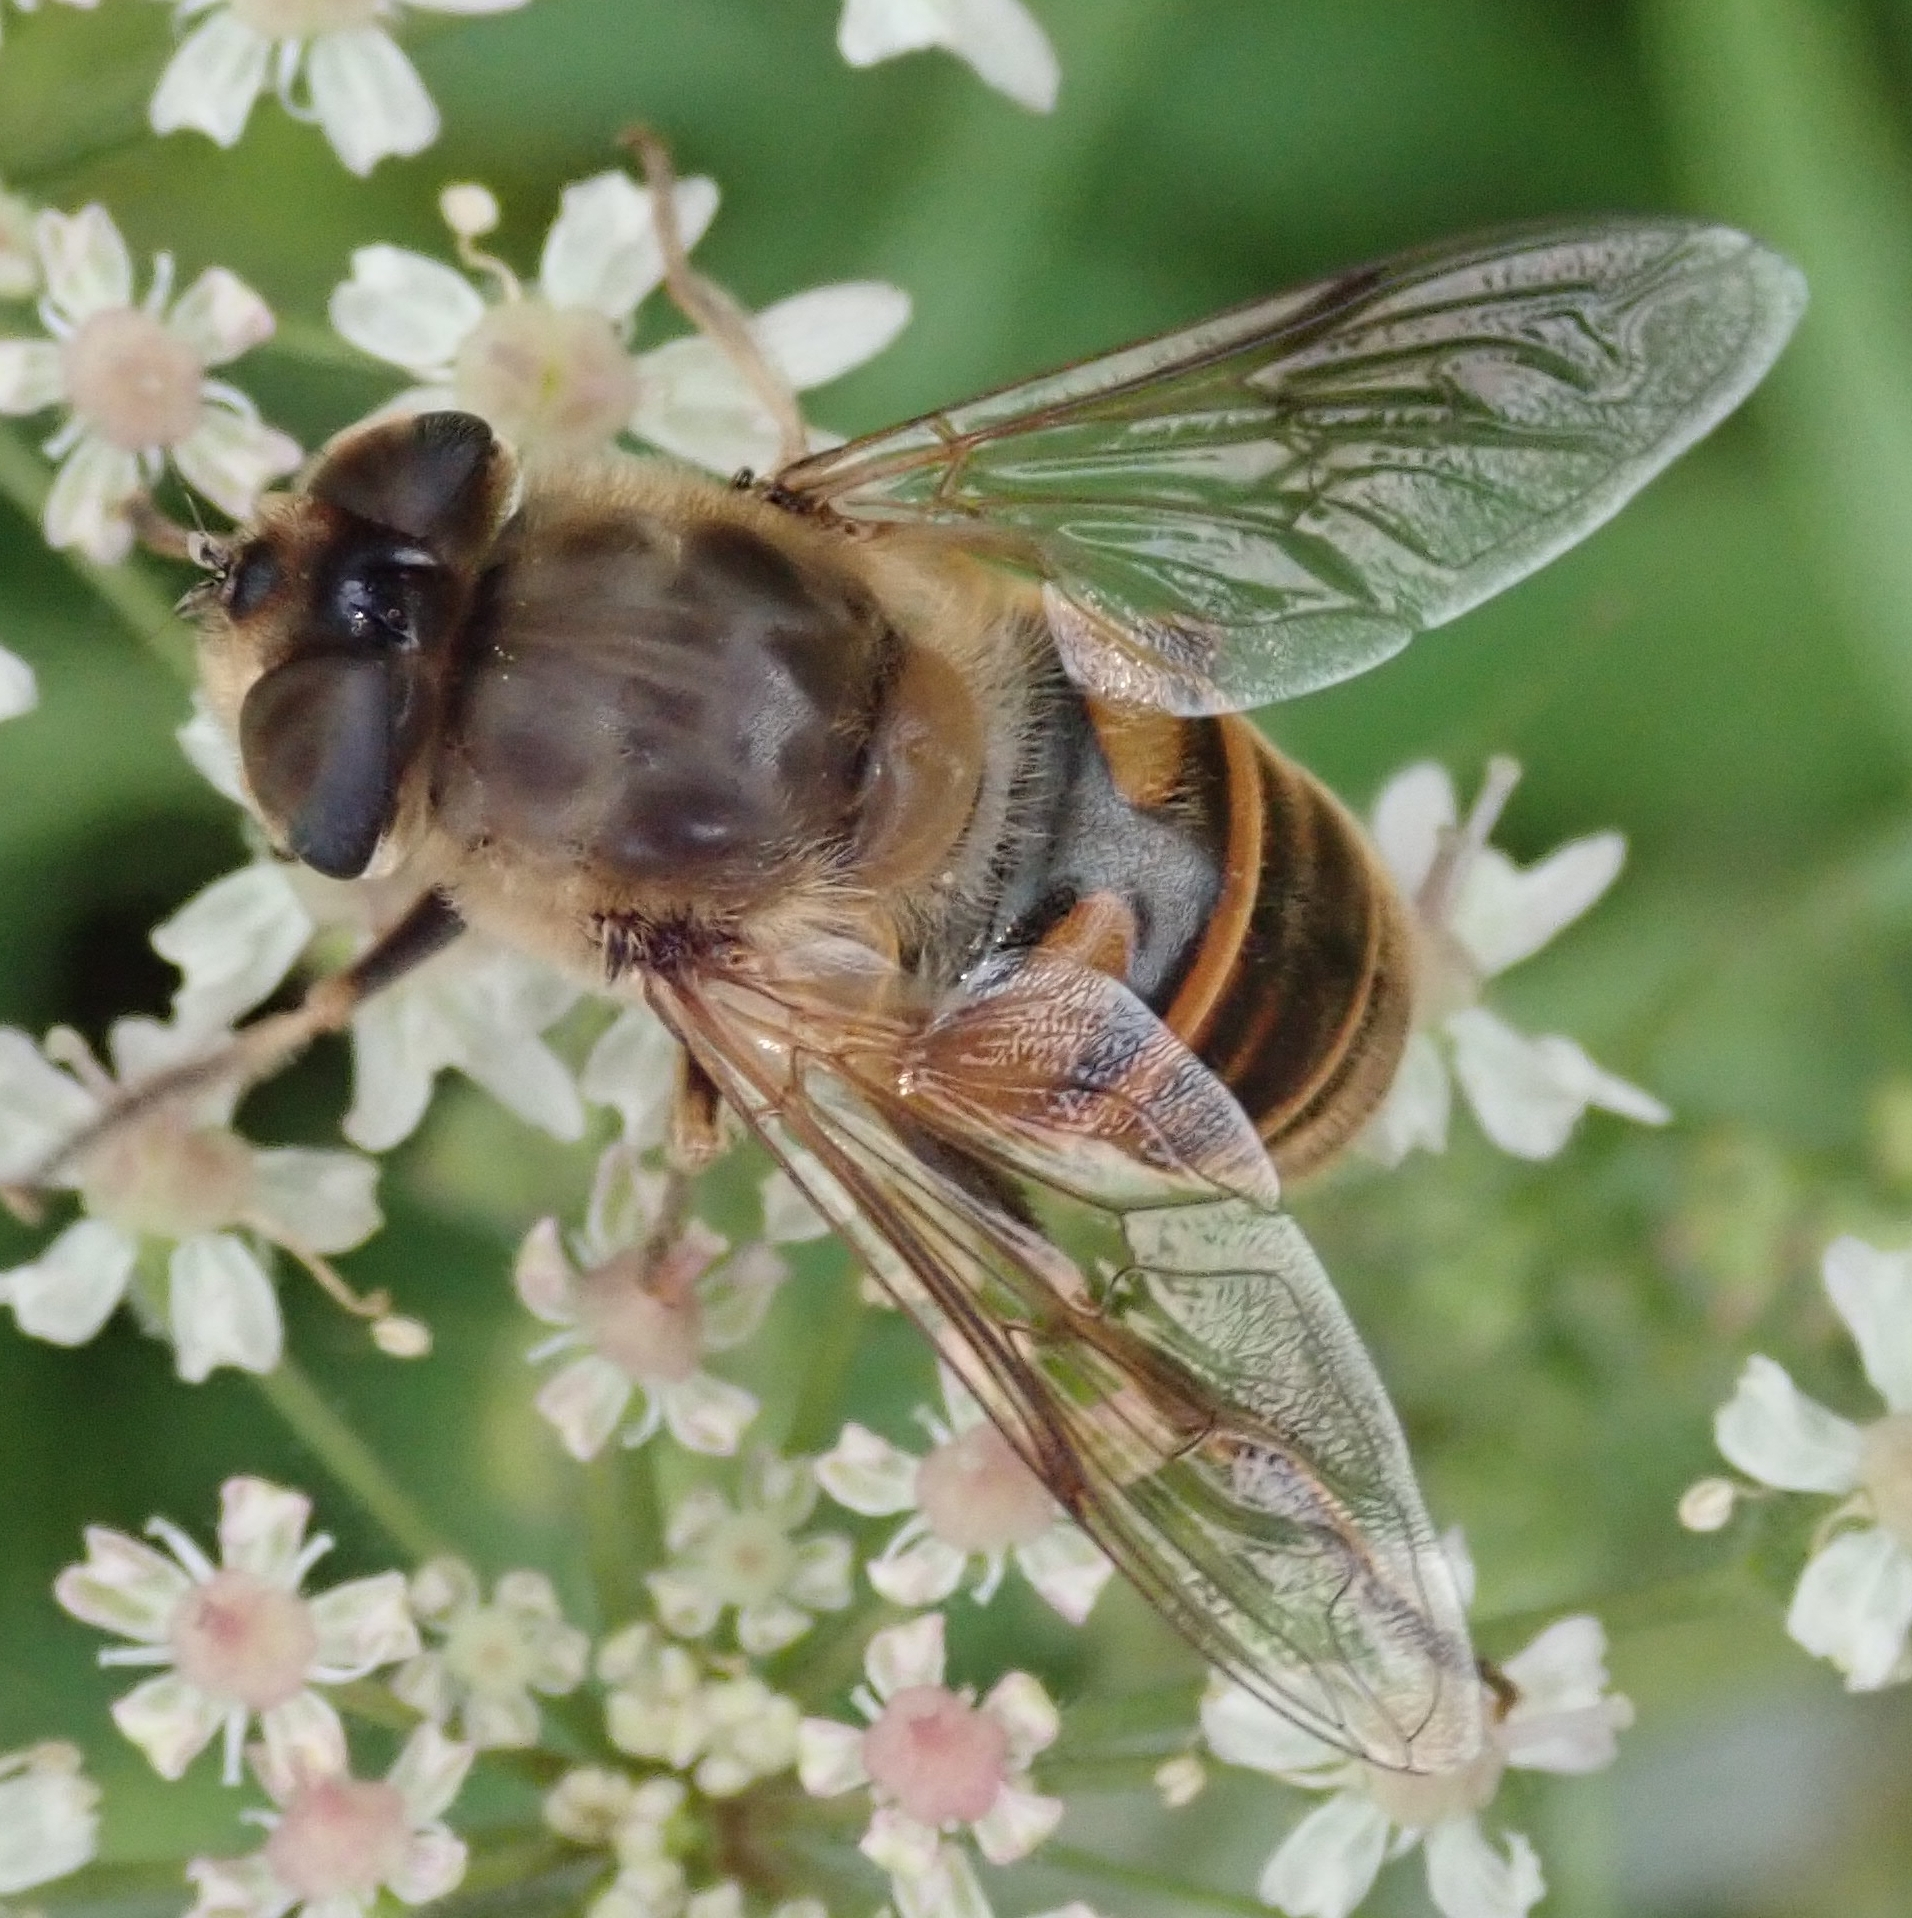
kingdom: Animalia
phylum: Arthropoda
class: Insecta
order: Diptera
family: Syrphidae
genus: Eristalis
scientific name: Eristalis tenax
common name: Drone fly
